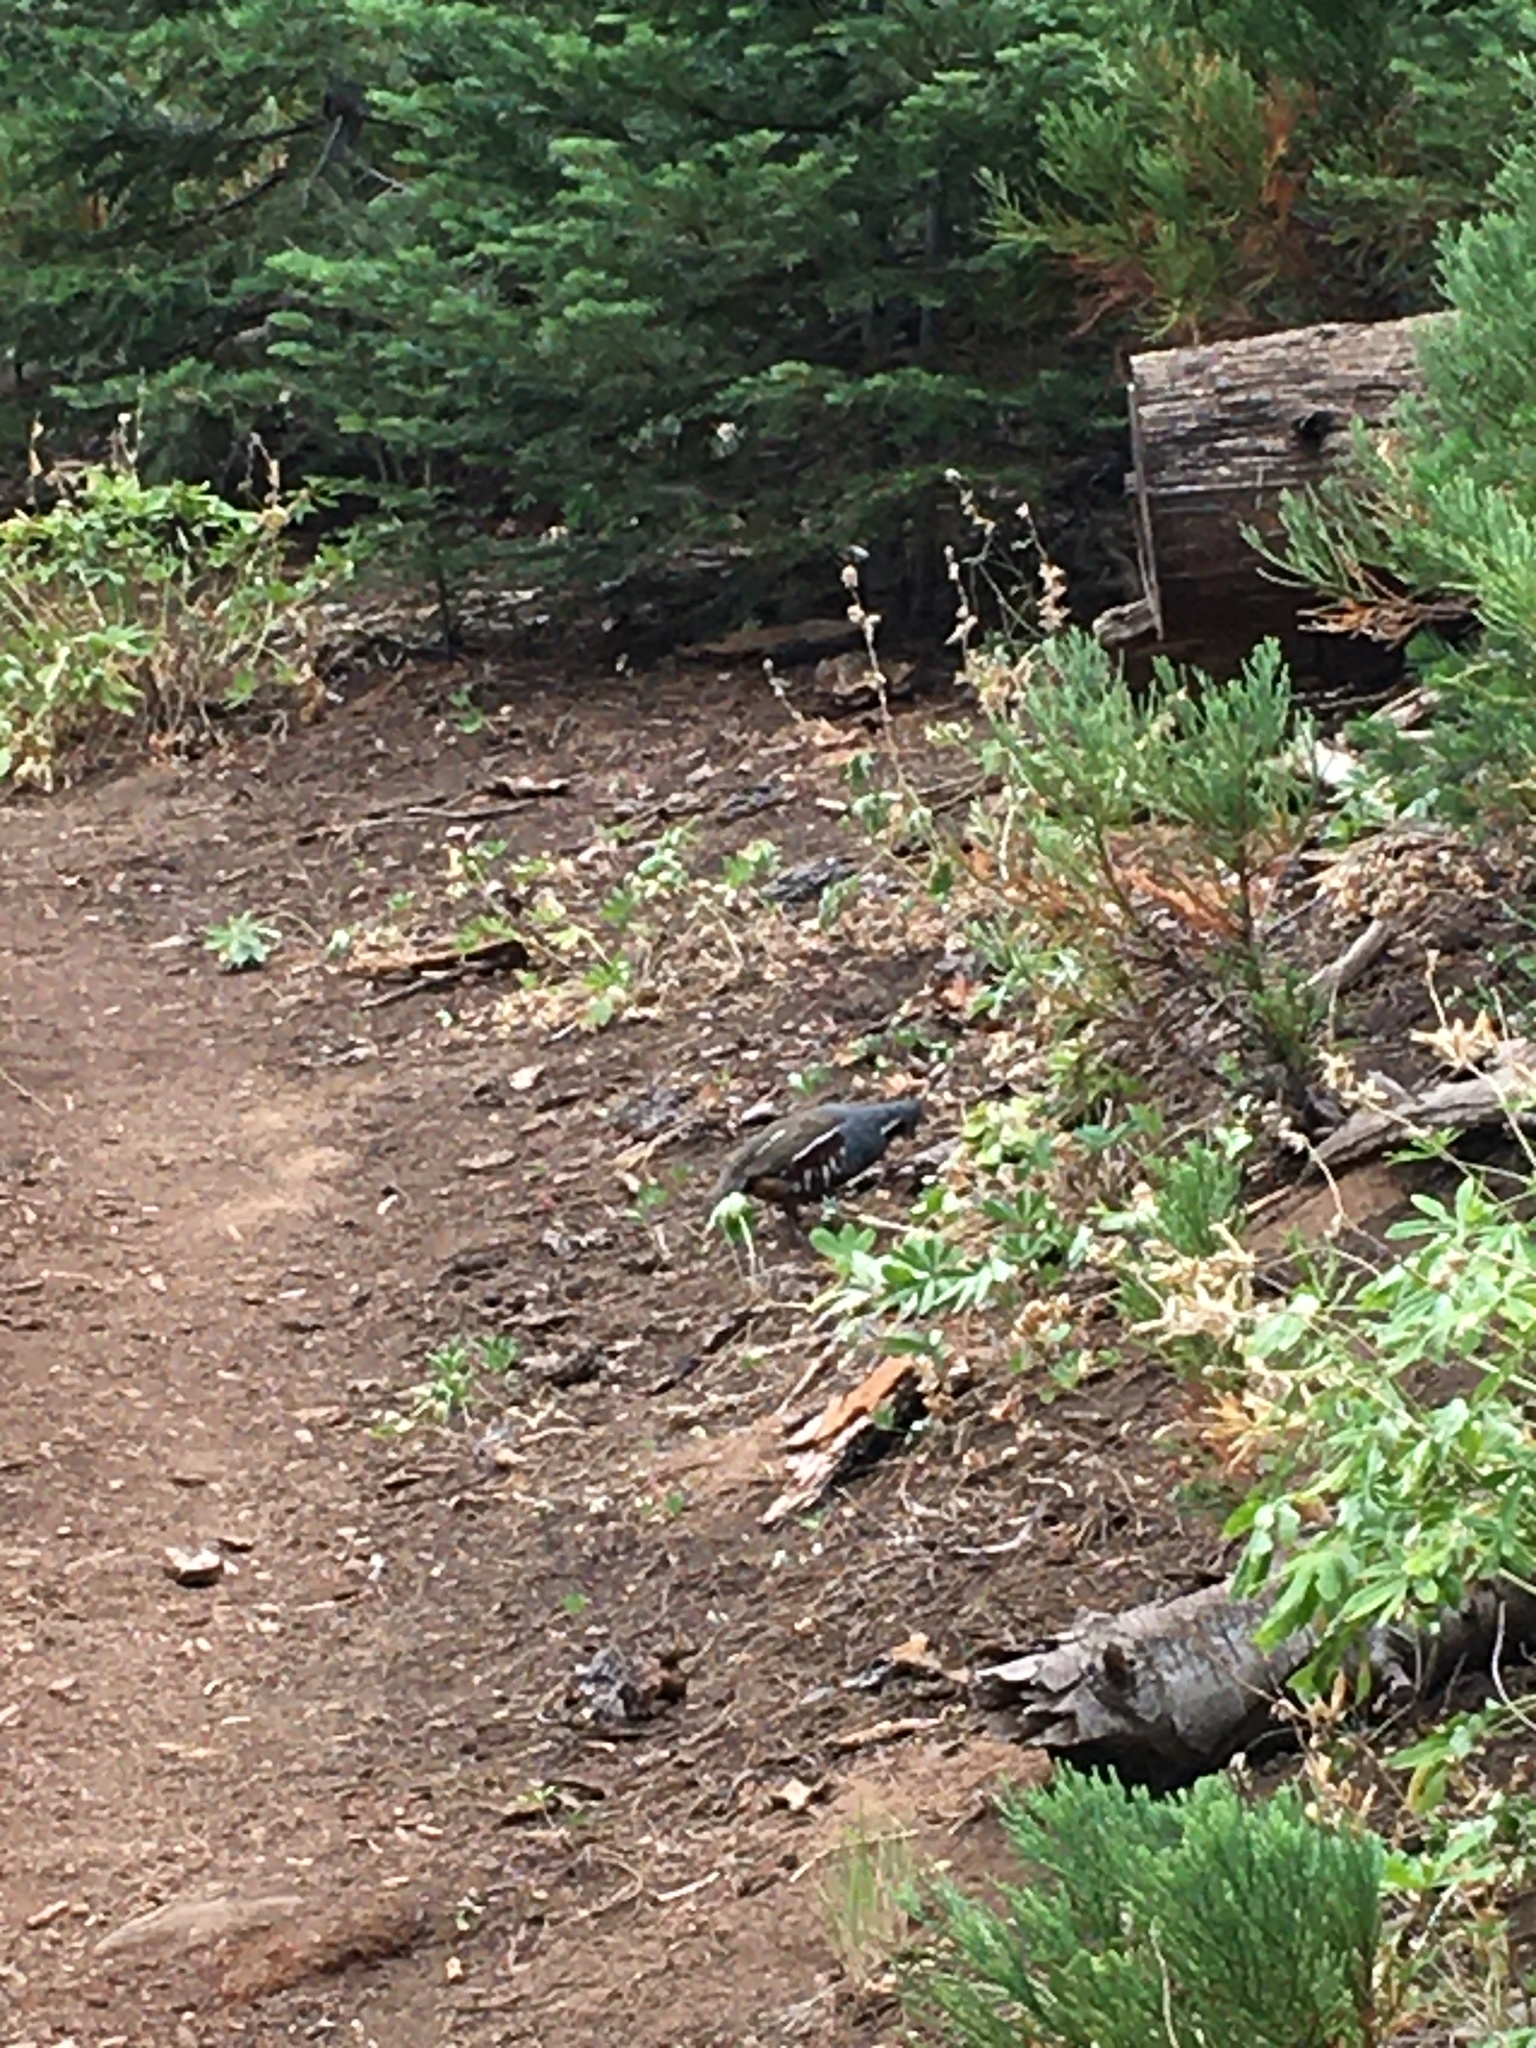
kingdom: Animalia
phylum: Chordata
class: Aves
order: Galliformes
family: Odontophoridae
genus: Oreortyx
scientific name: Oreortyx pictus
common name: Mountain quail
